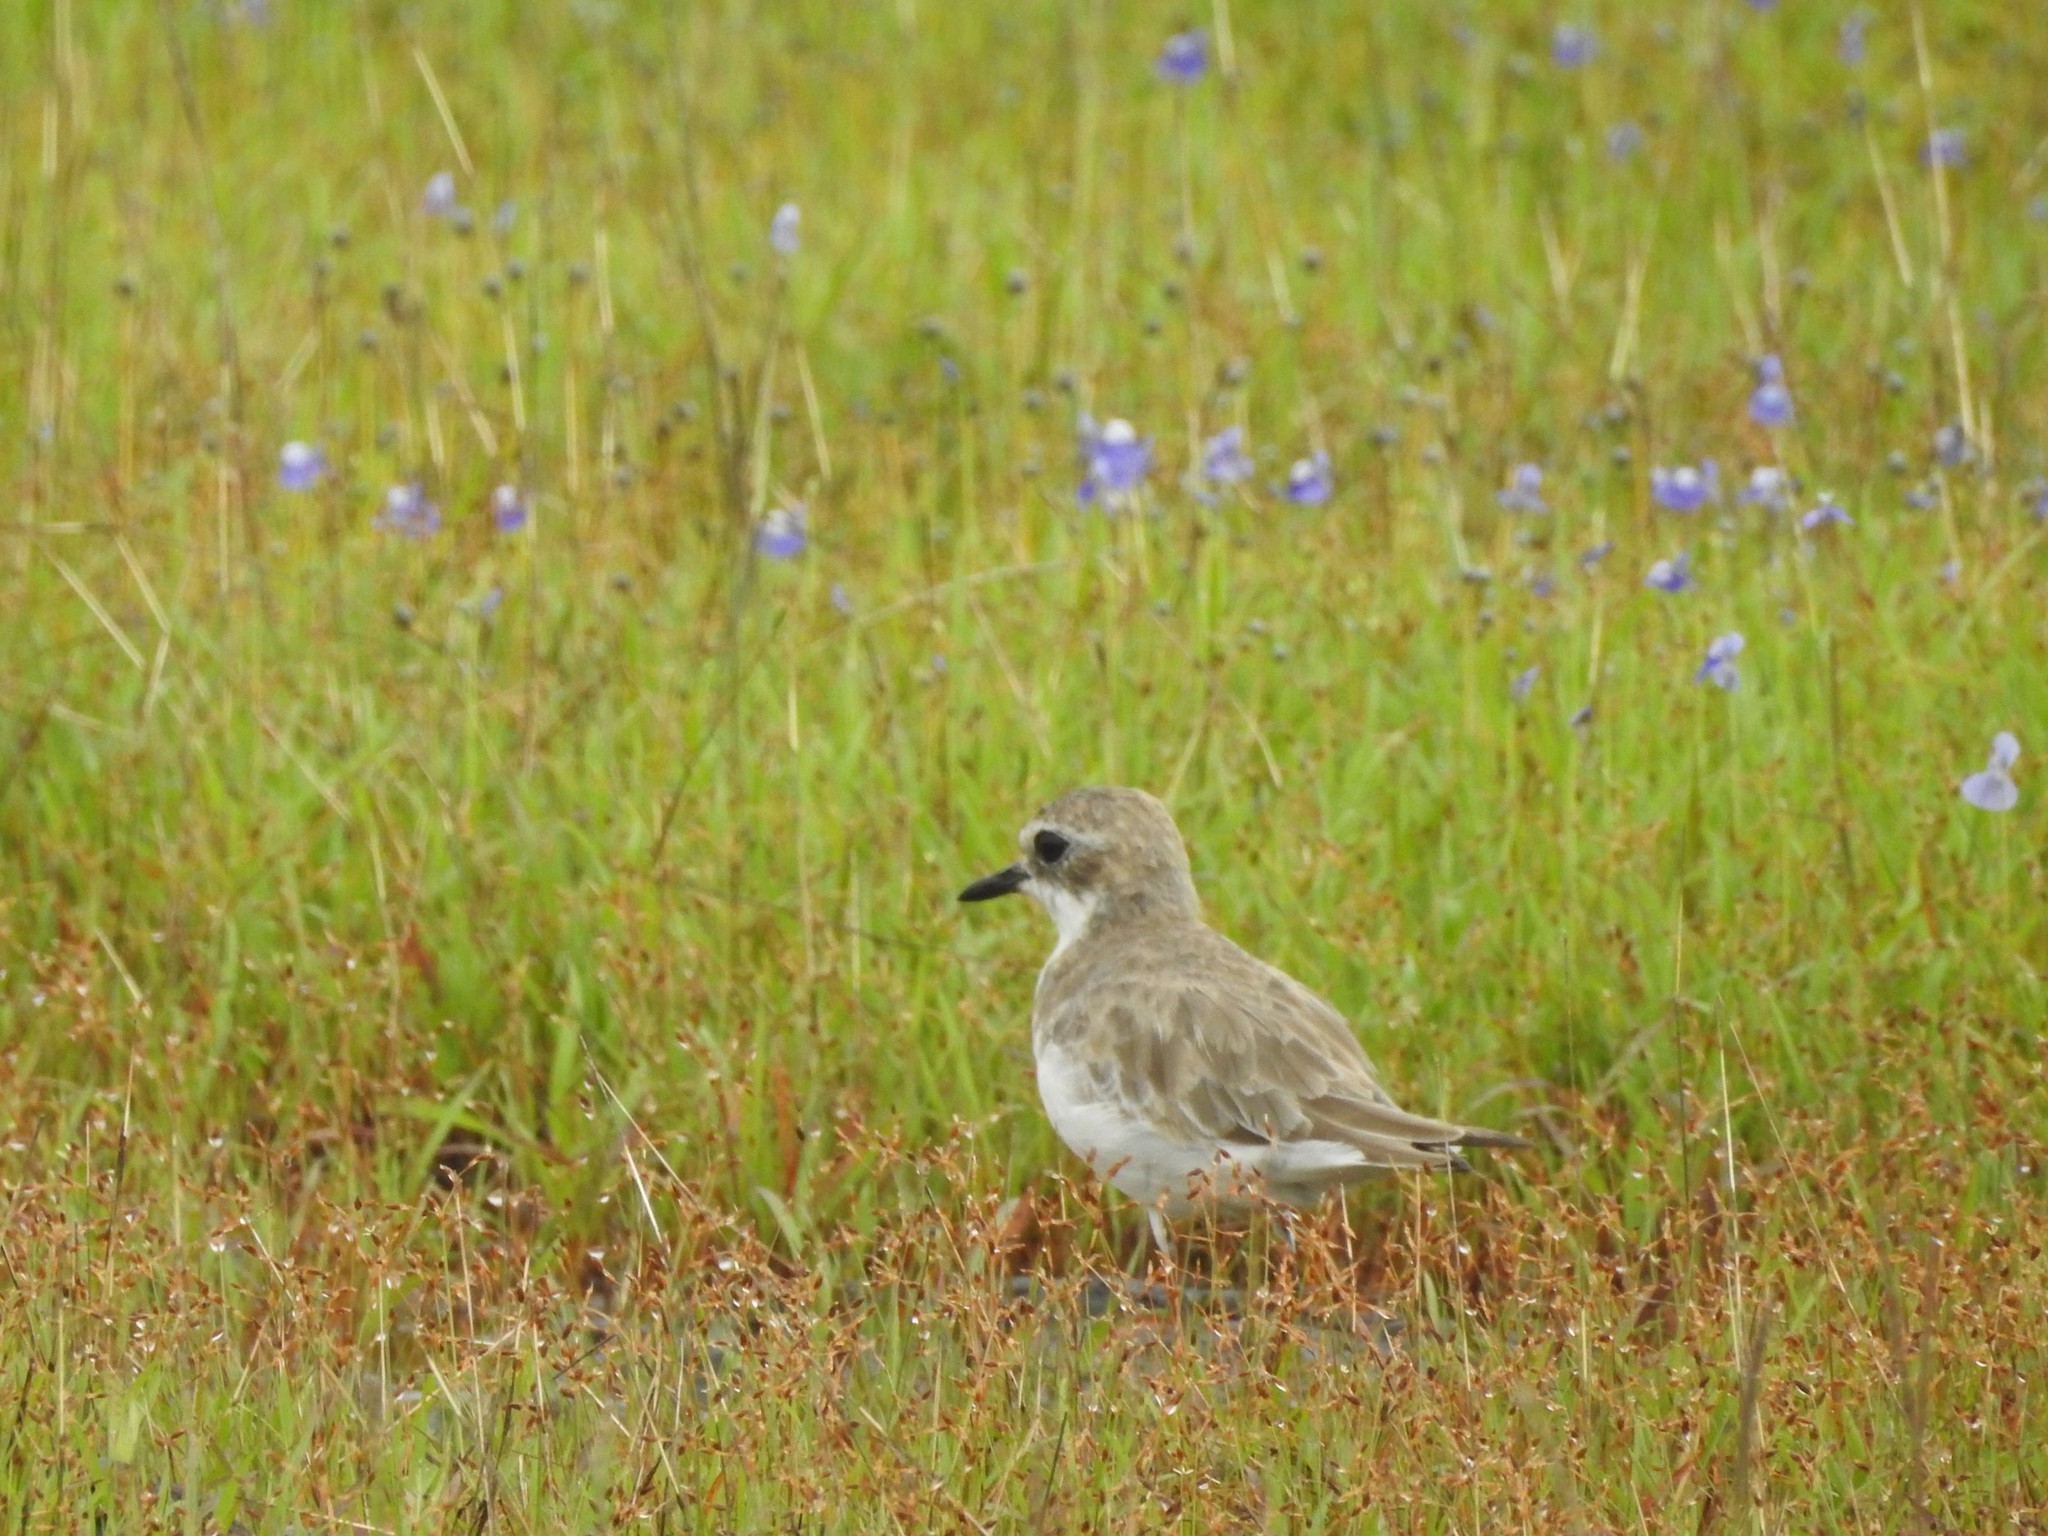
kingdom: Animalia
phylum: Chordata
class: Aves
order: Charadriiformes
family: Charadriidae
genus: Anarhynchus
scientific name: Anarhynchus
